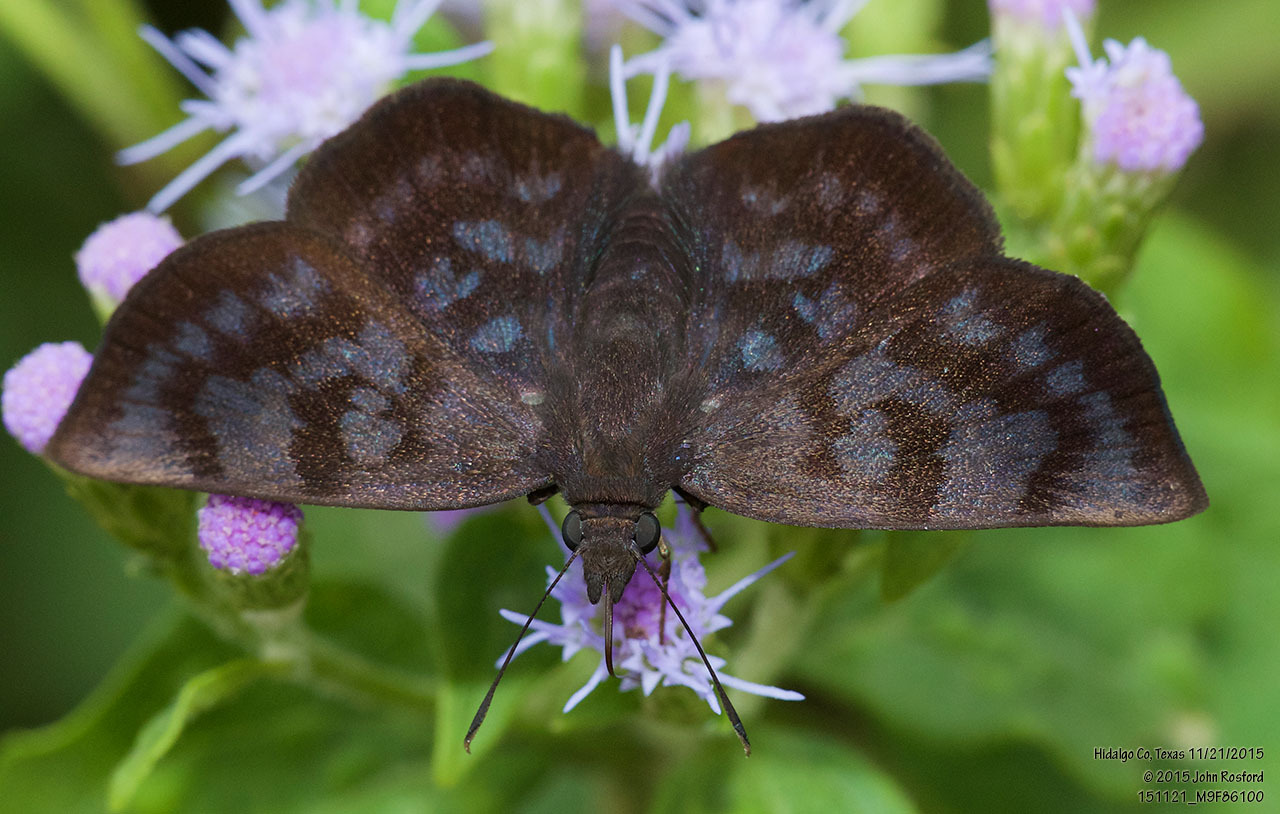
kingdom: Animalia
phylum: Arthropoda
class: Insecta
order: Lepidoptera
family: Hesperiidae
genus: Pellicia
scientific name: Pellicia costimacula
